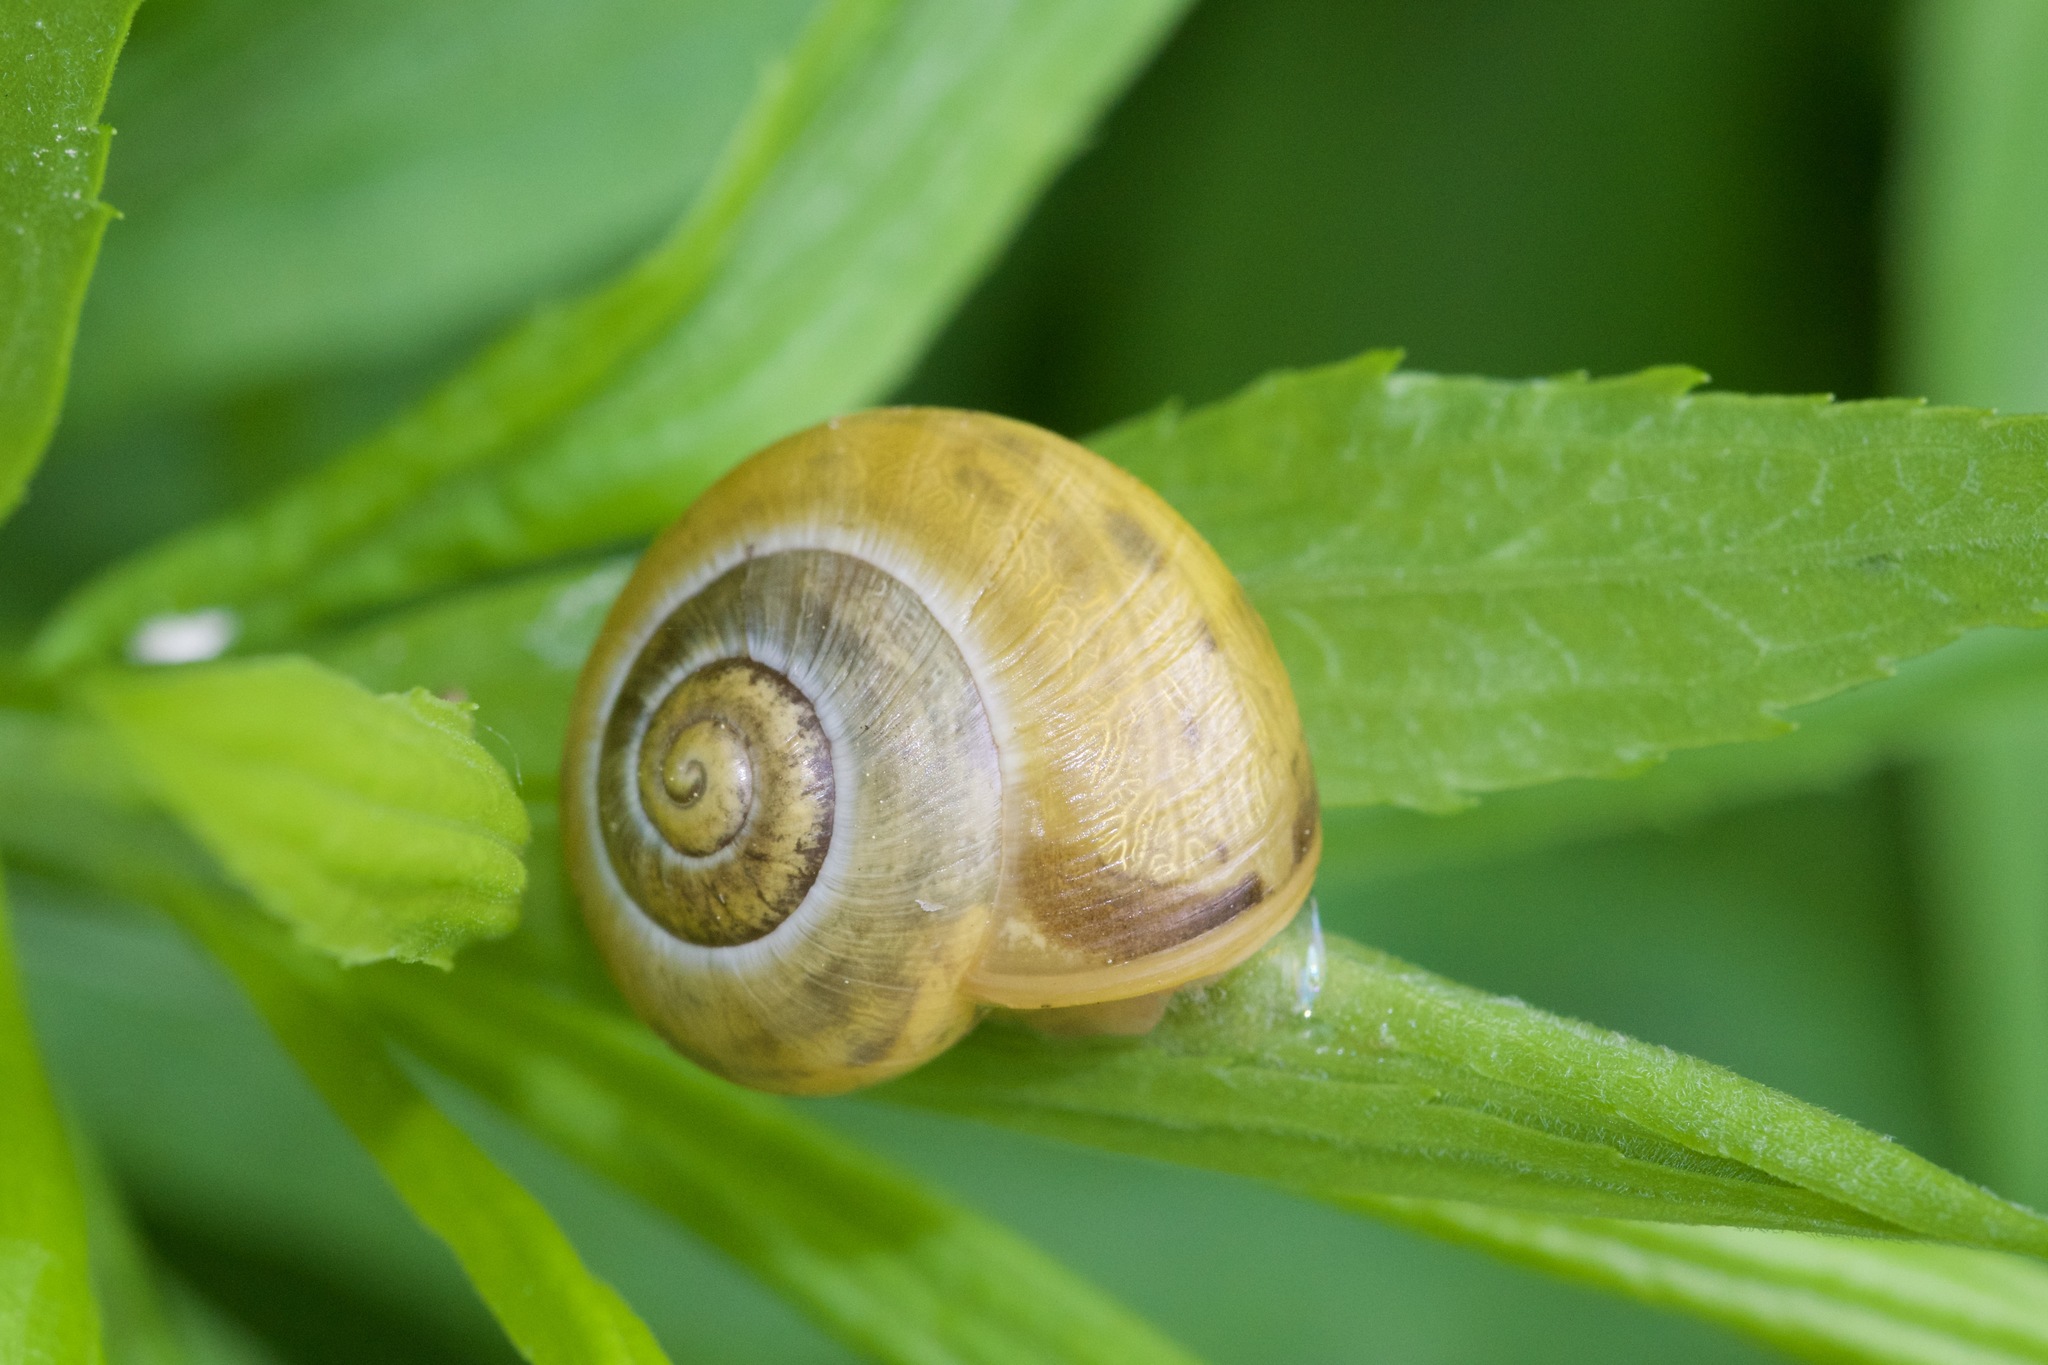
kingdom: Animalia
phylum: Mollusca
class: Gastropoda
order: Stylommatophora
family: Helicidae
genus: Cepaea
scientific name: Cepaea
